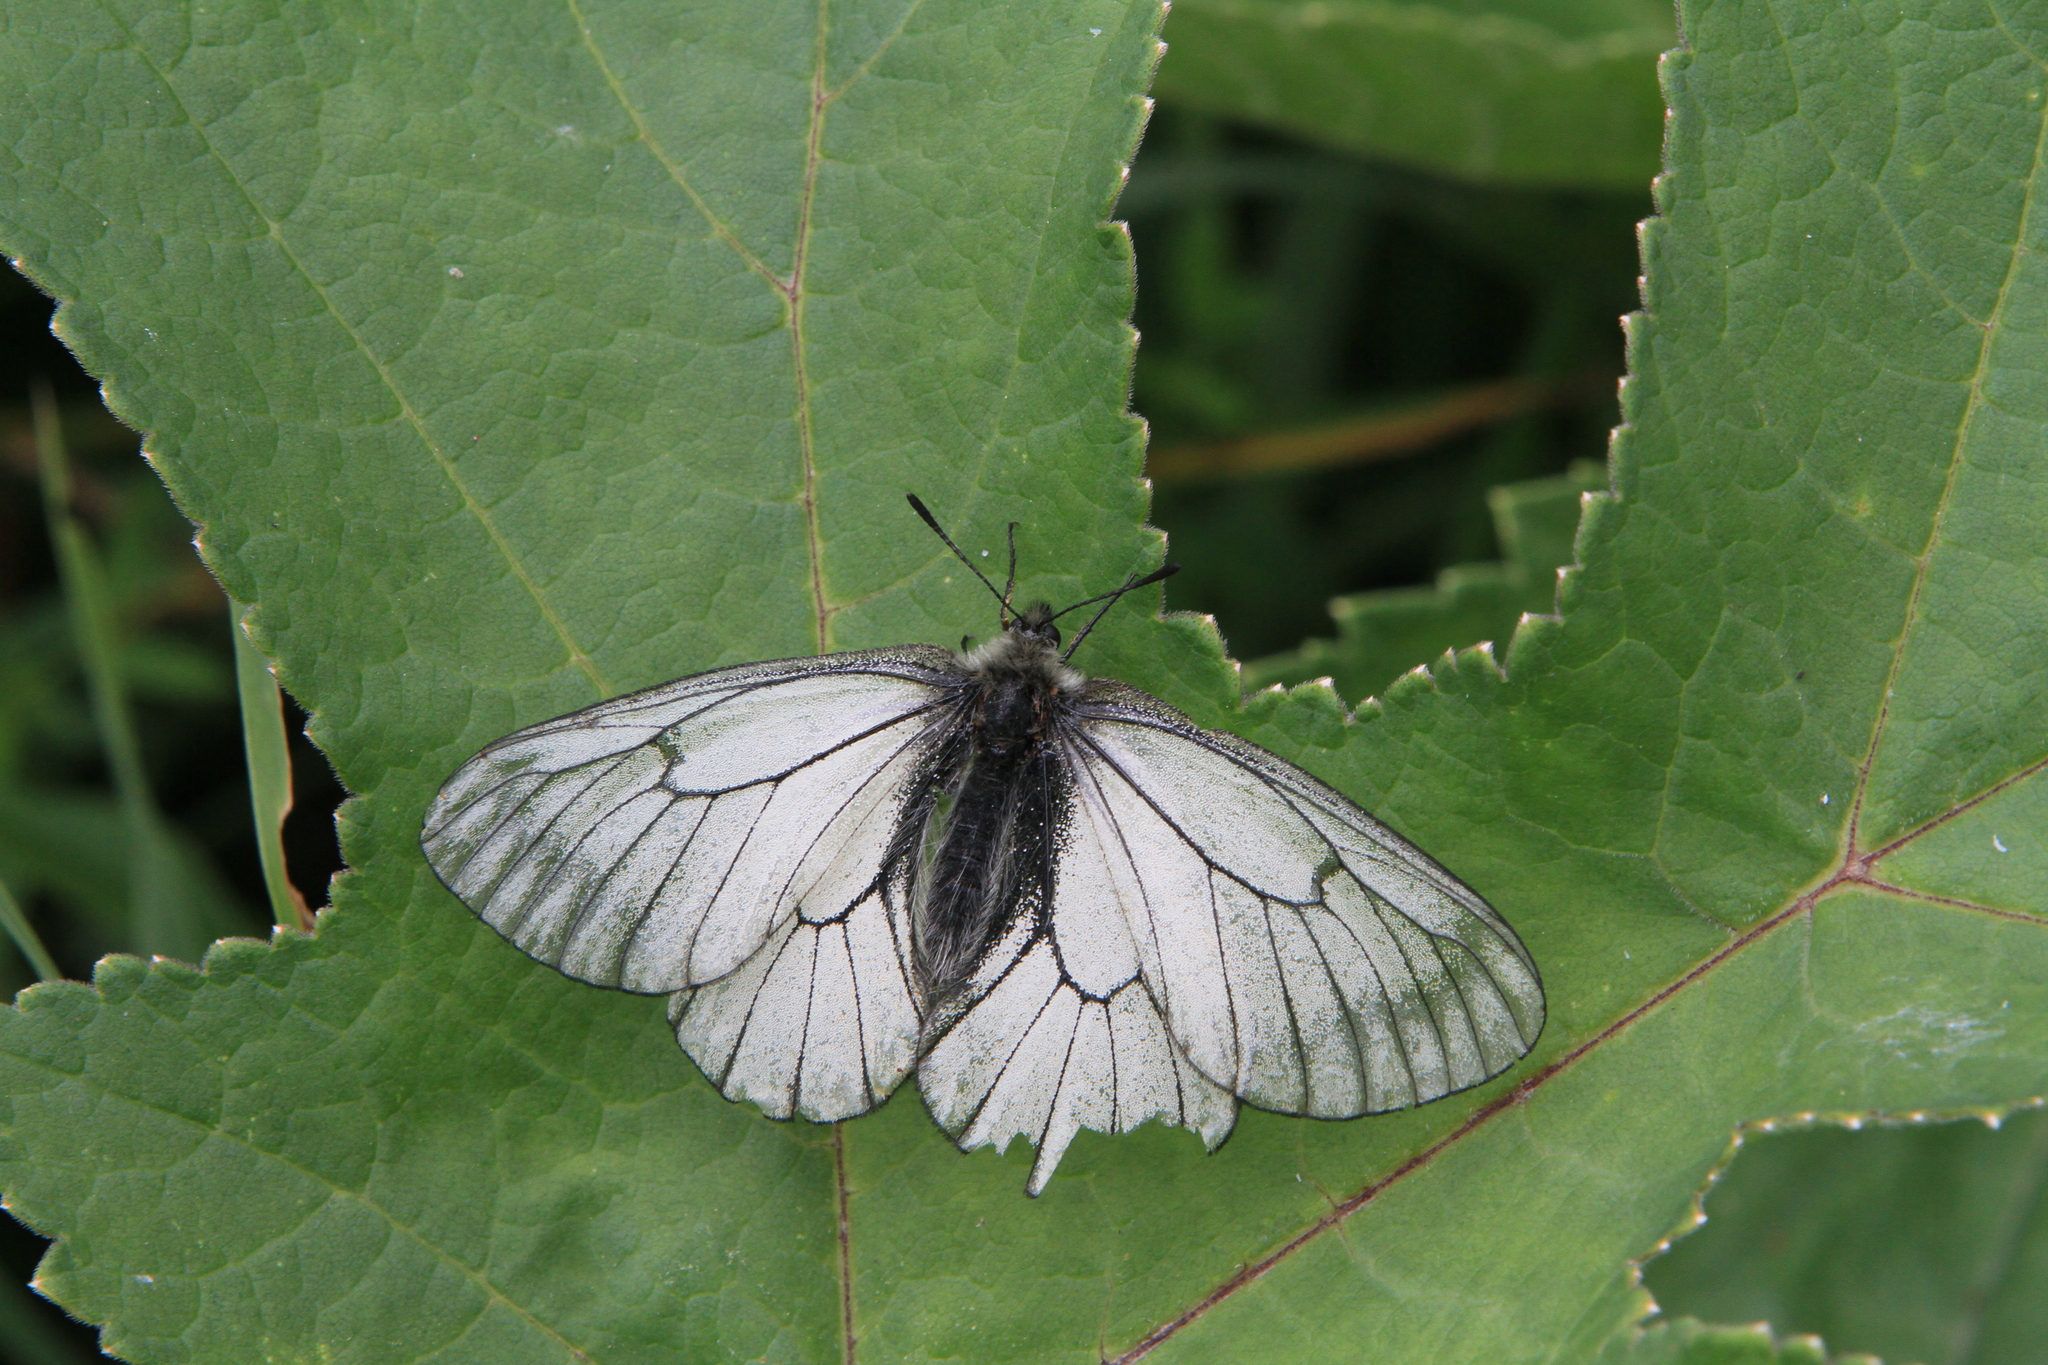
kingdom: Plantae
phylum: Tracheophyta
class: Magnoliopsida
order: Apiales
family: Apiaceae
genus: Heracleum
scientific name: Heracleum dissectum
